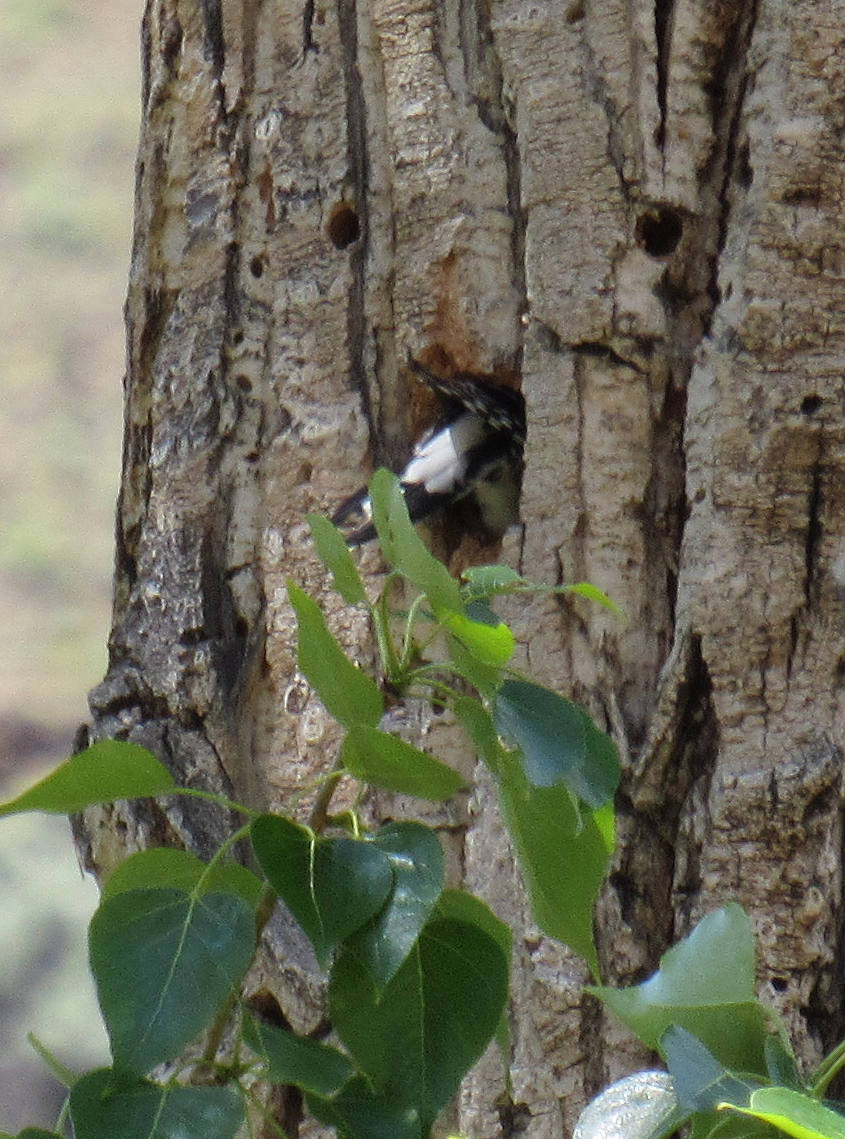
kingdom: Animalia
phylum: Chordata
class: Aves
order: Piciformes
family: Picidae
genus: Sphyrapicus
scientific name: Sphyrapicus nuchalis
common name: Red-naped sapsucker
